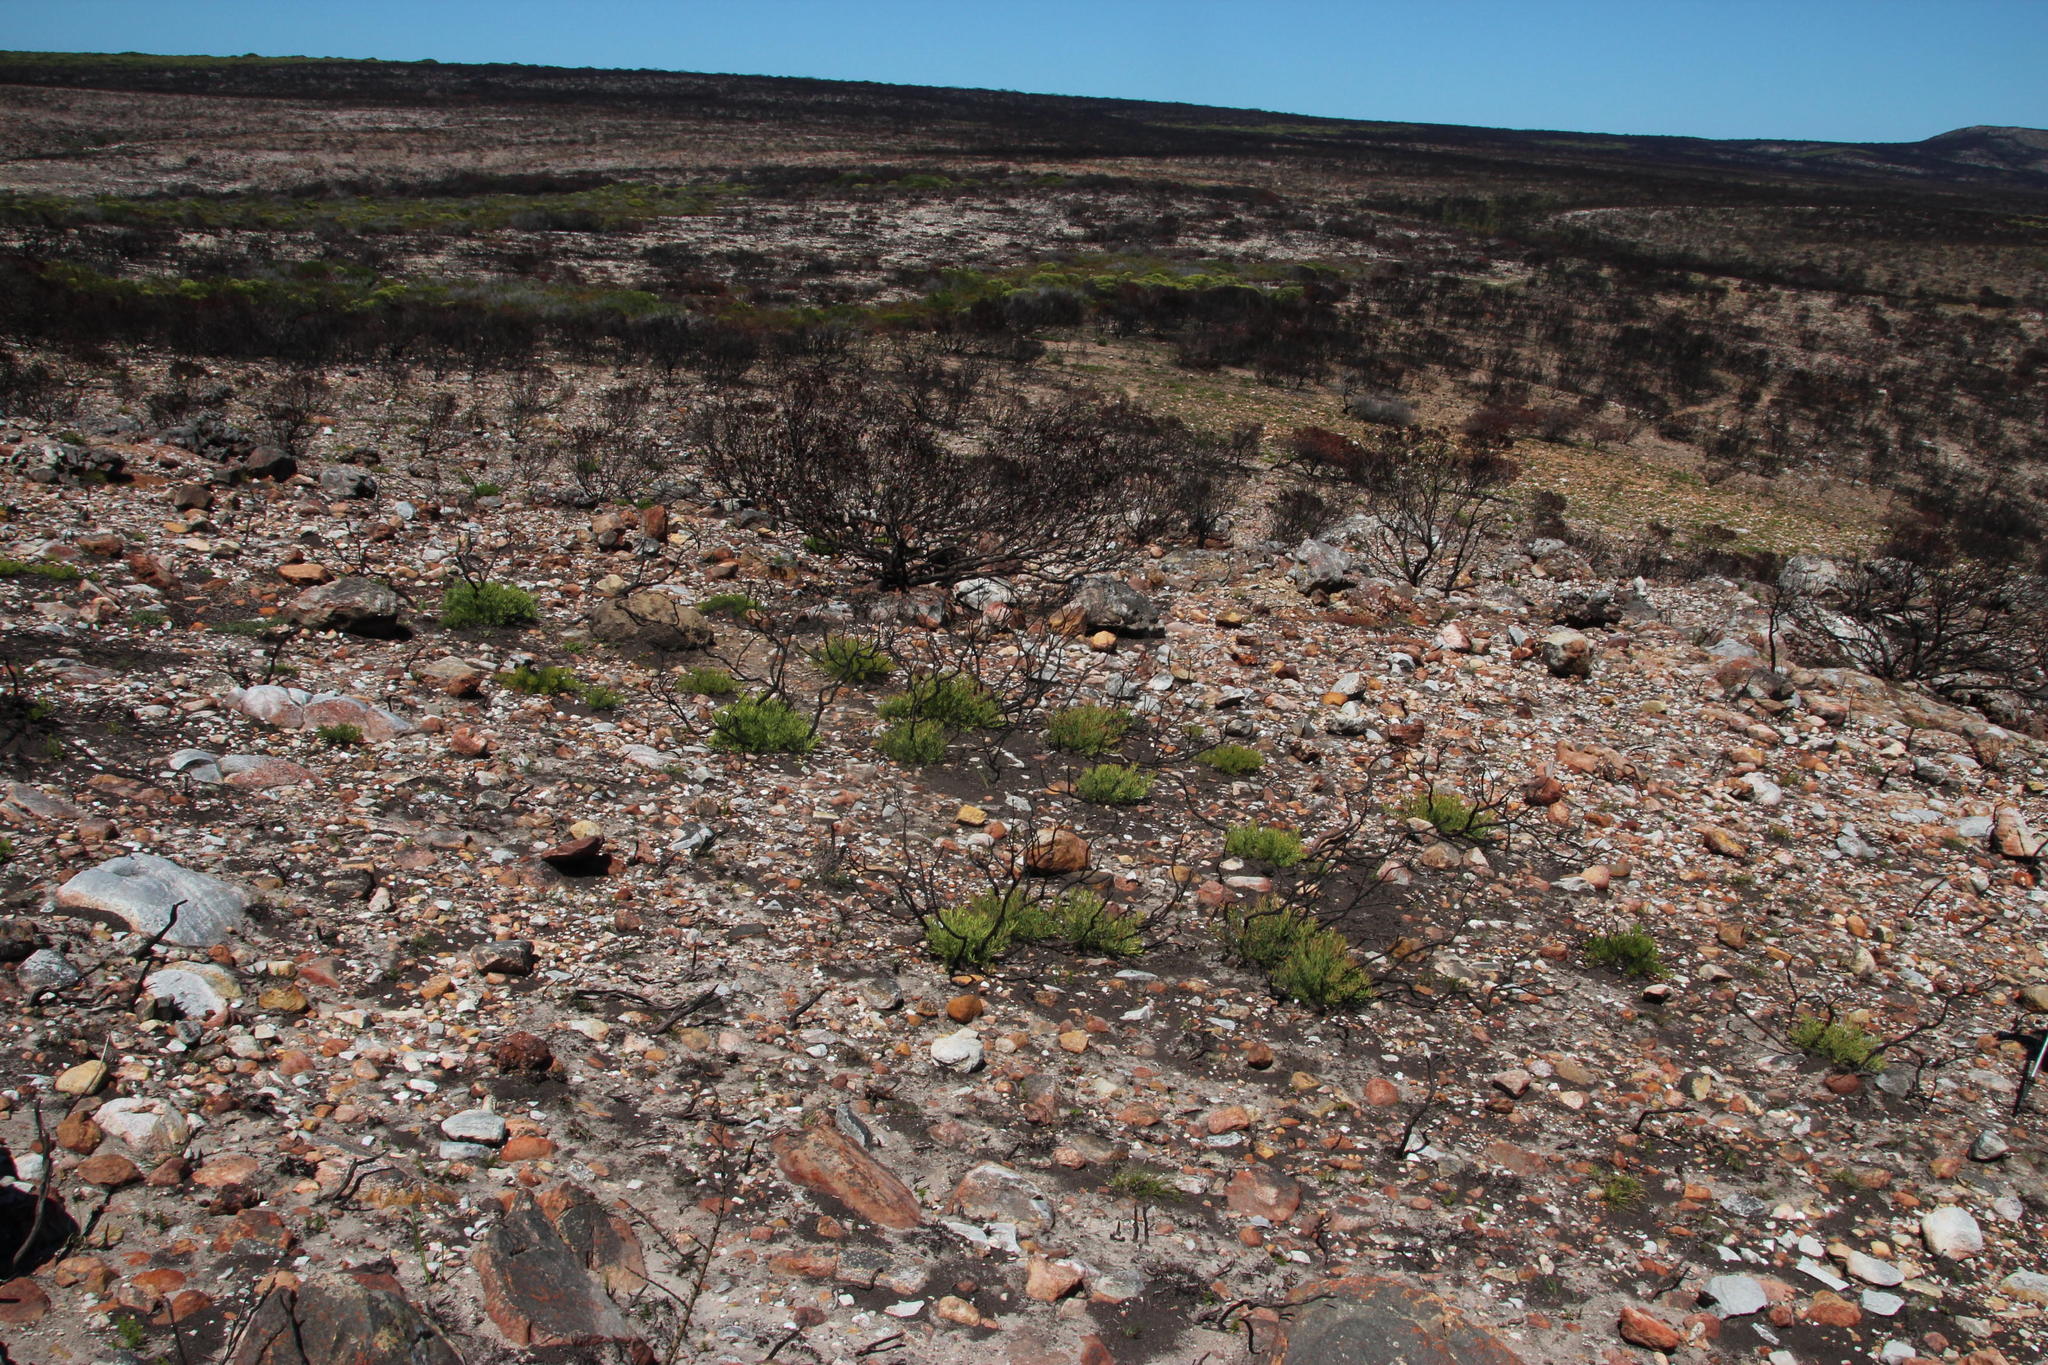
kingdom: Plantae
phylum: Tracheophyta
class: Magnoliopsida
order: Proteales
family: Proteaceae
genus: Leucadendron
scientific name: Leucadendron salignum
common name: Common sunshine conebush
